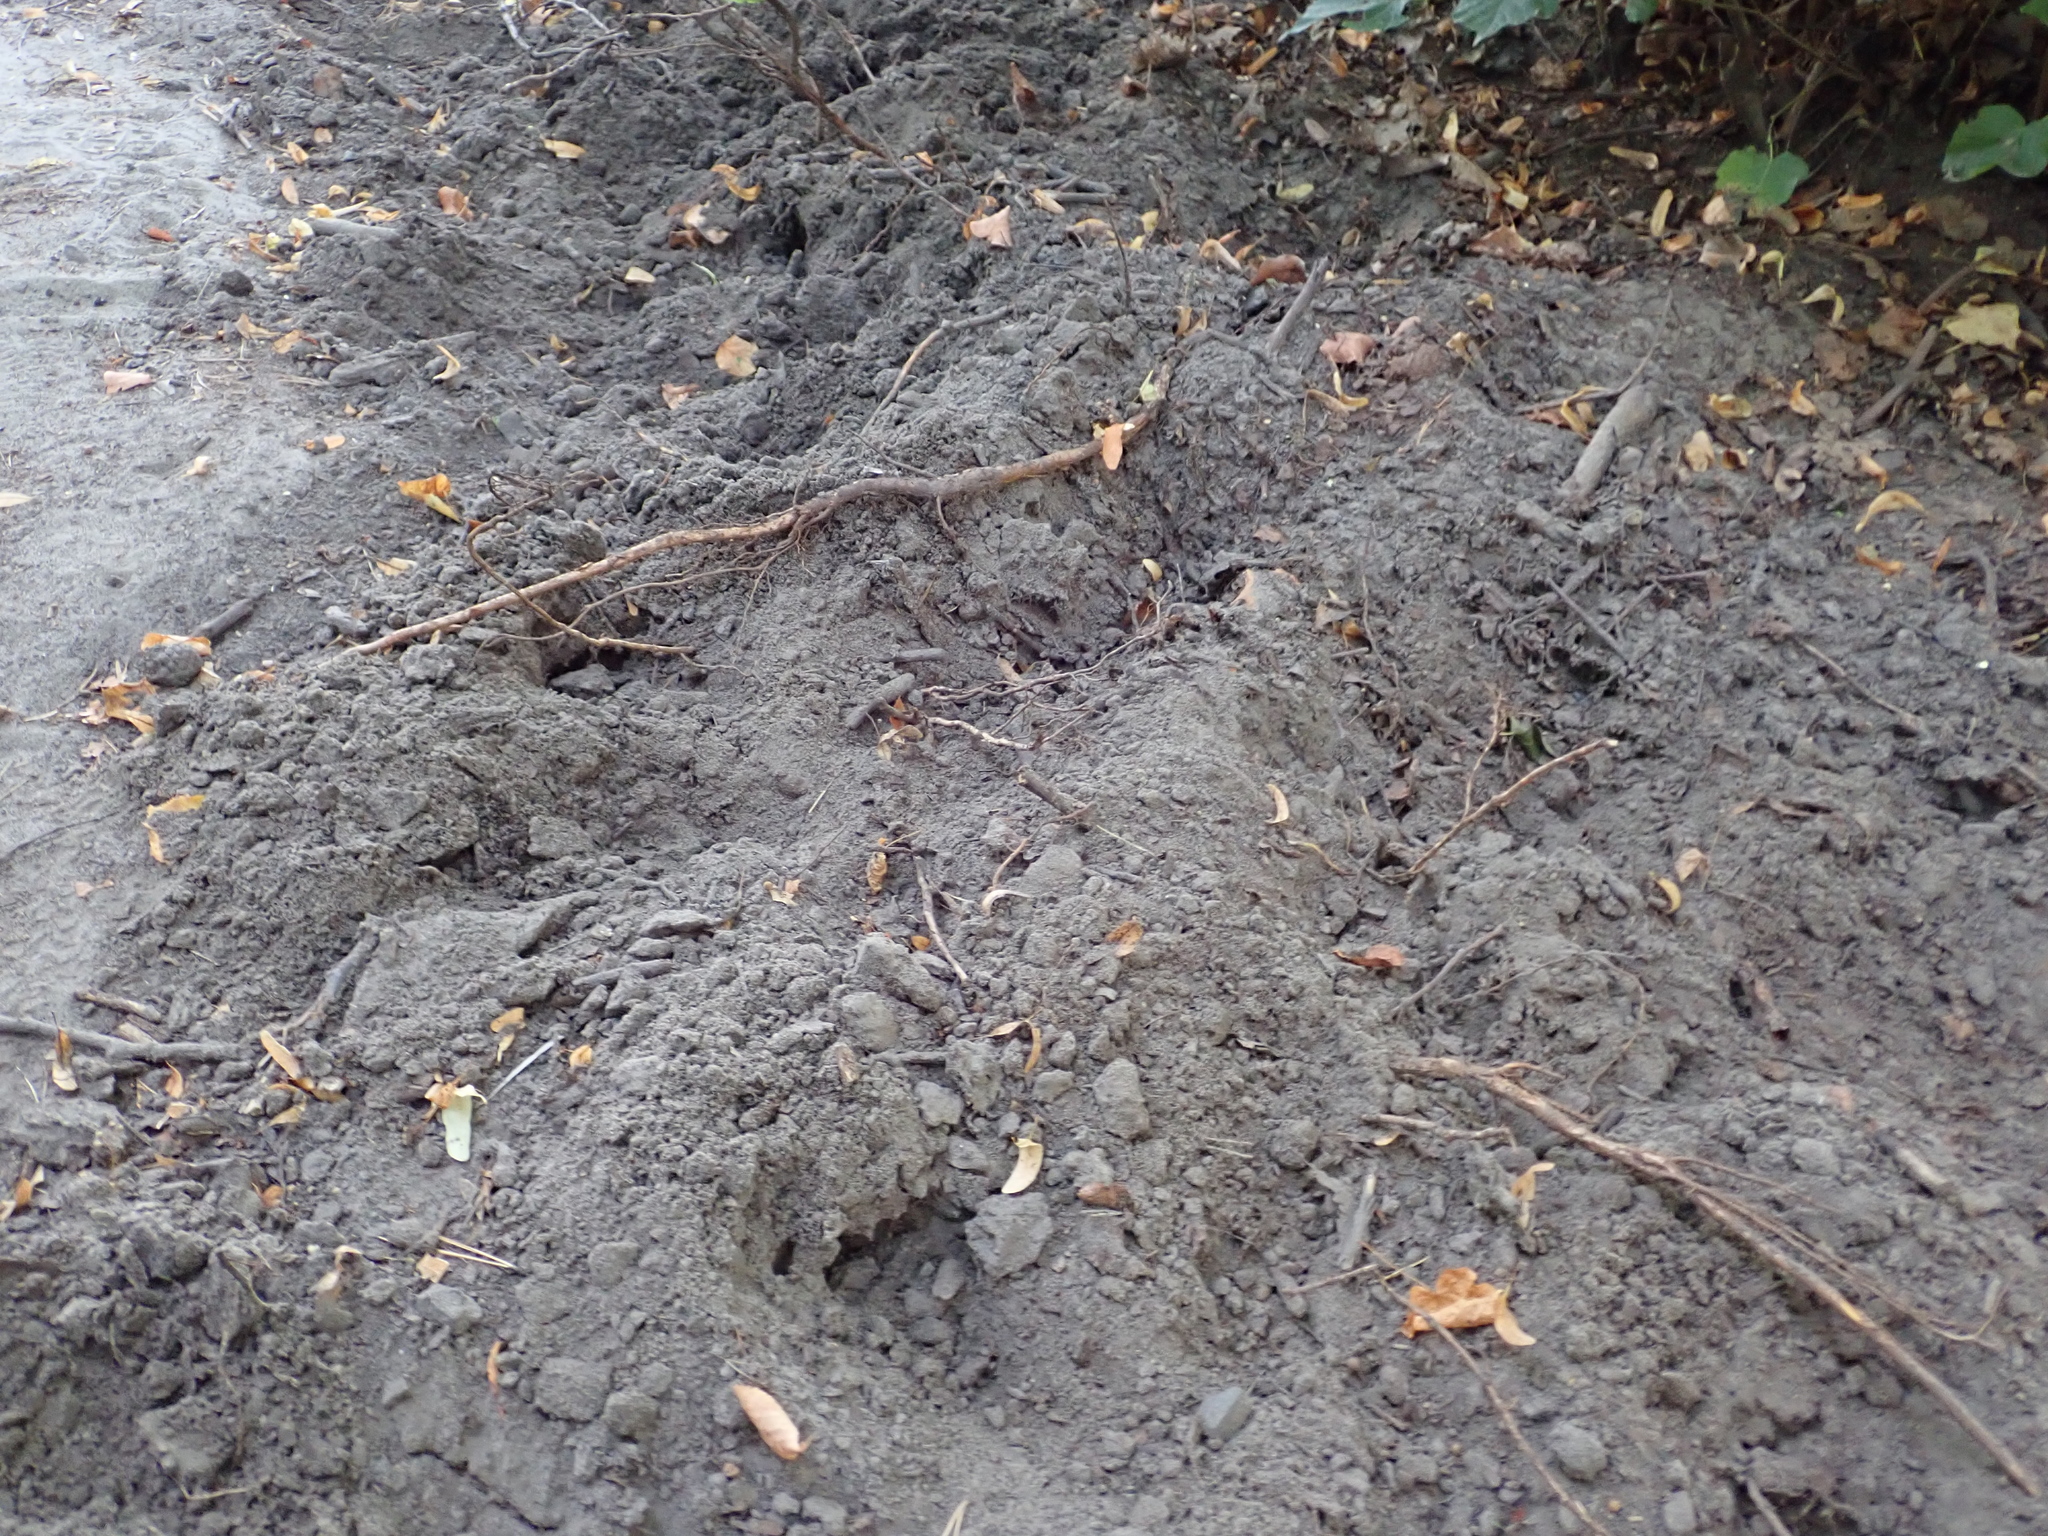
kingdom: Animalia
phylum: Chordata
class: Mammalia
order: Artiodactyla
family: Suidae
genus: Sus
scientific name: Sus scrofa
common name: Wild boar
